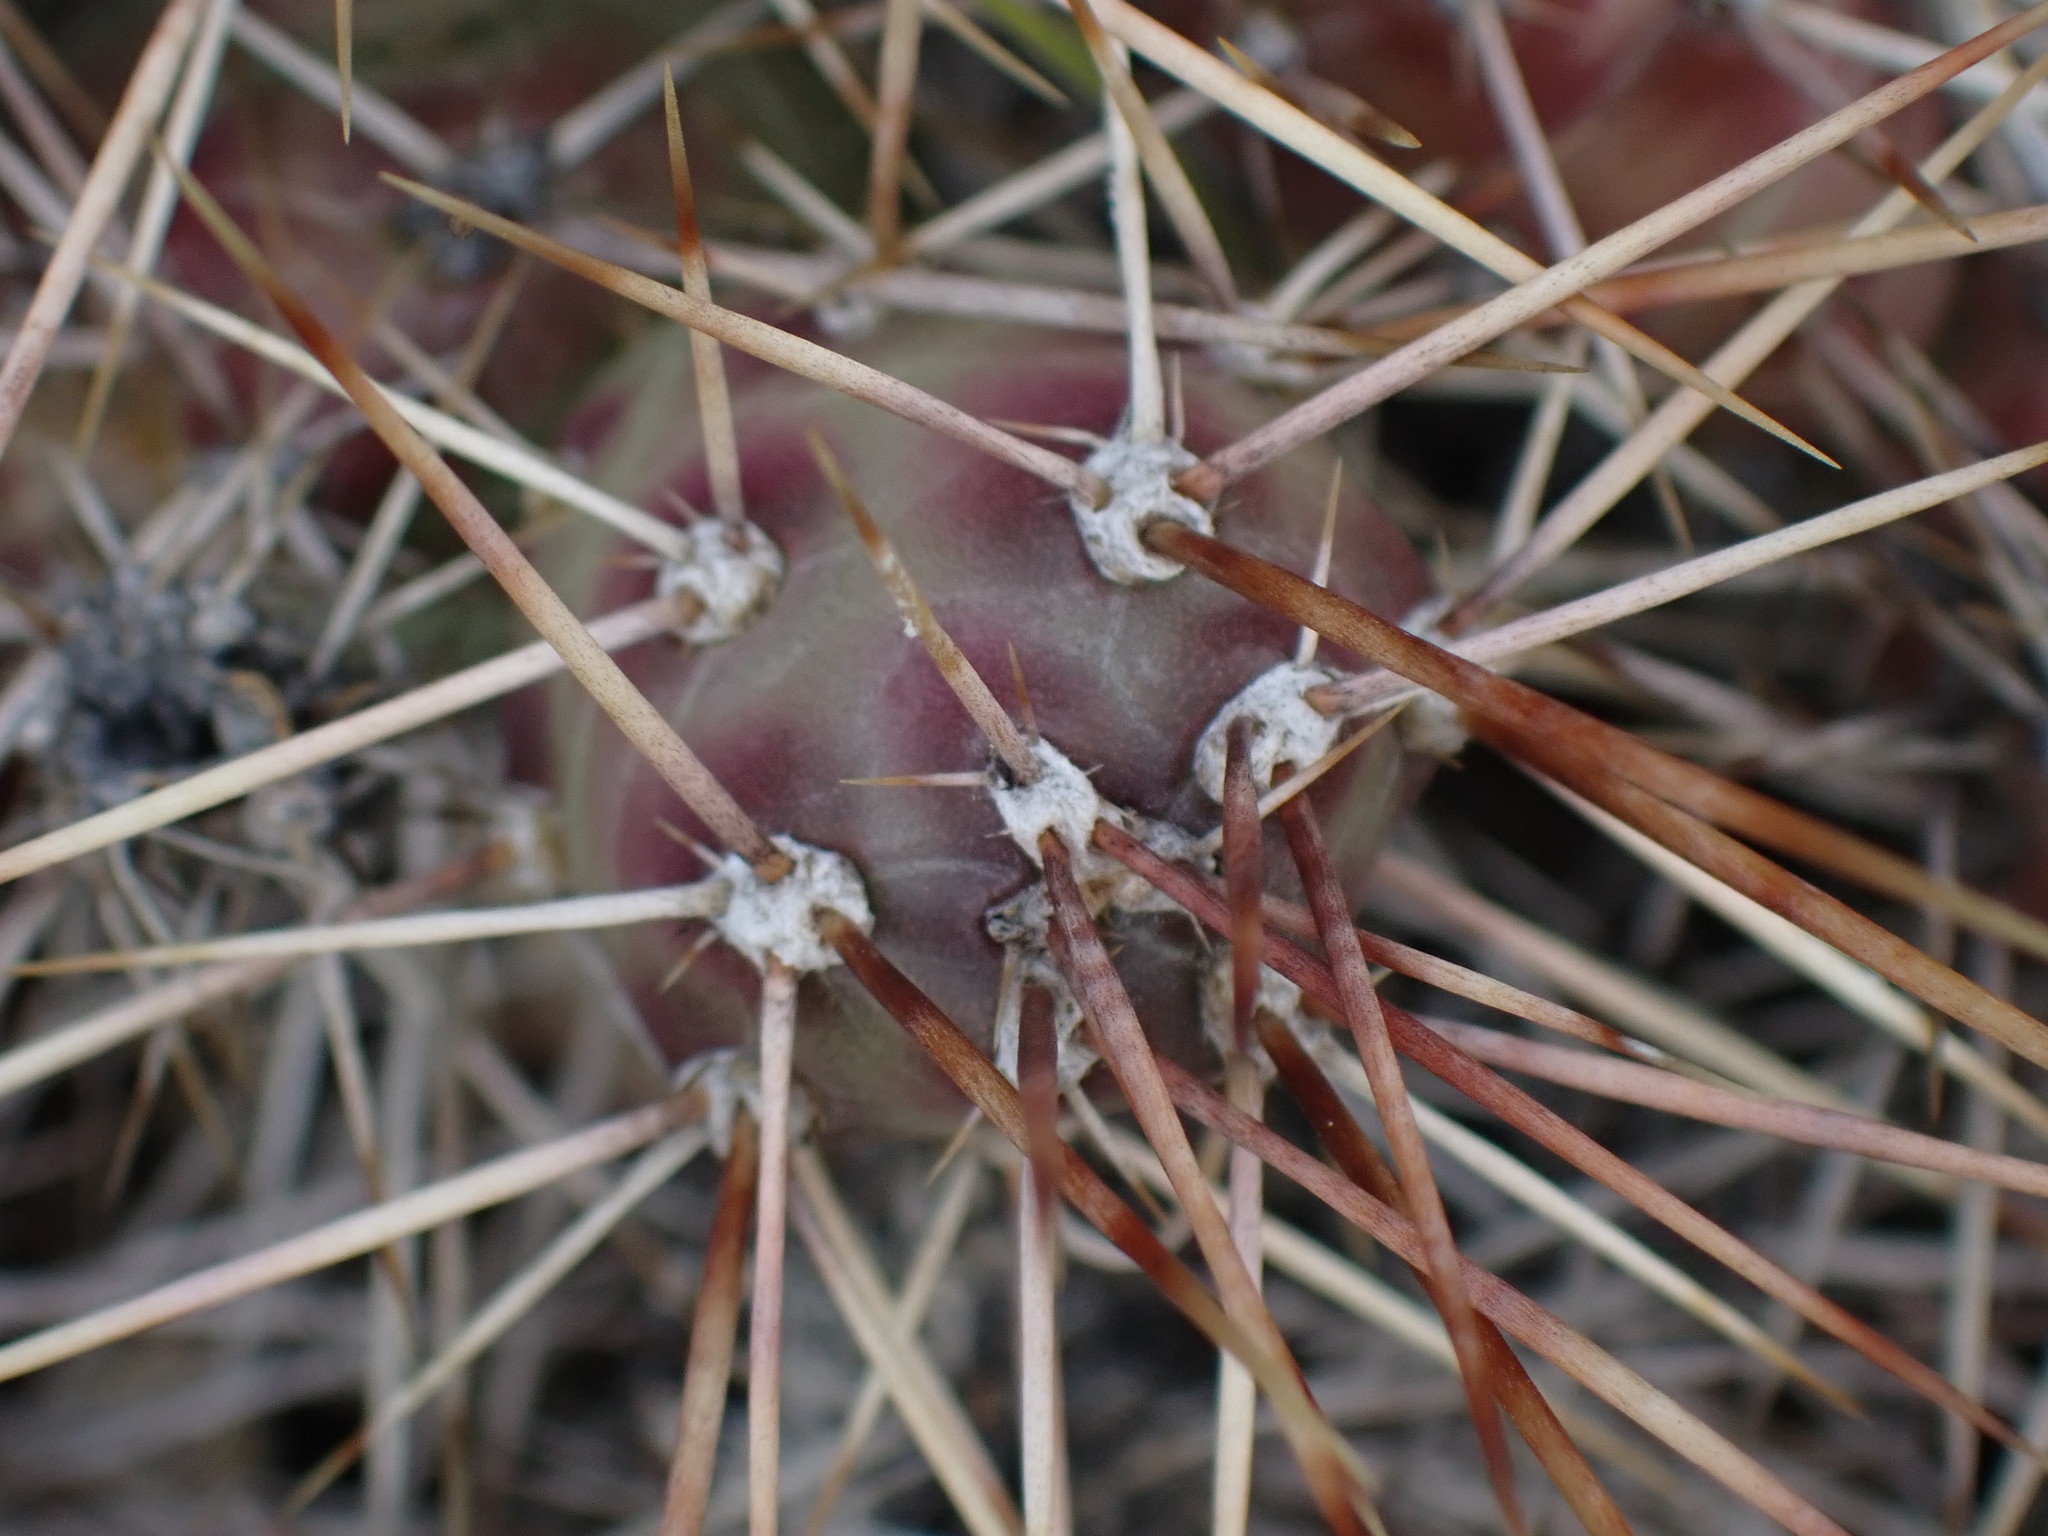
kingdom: Plantae
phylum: Tracheophyta
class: Magnoliopsida
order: Caryophyllales
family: Cactaceae
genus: Opuntia
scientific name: Opuntia fragilis
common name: Brittle cactus
